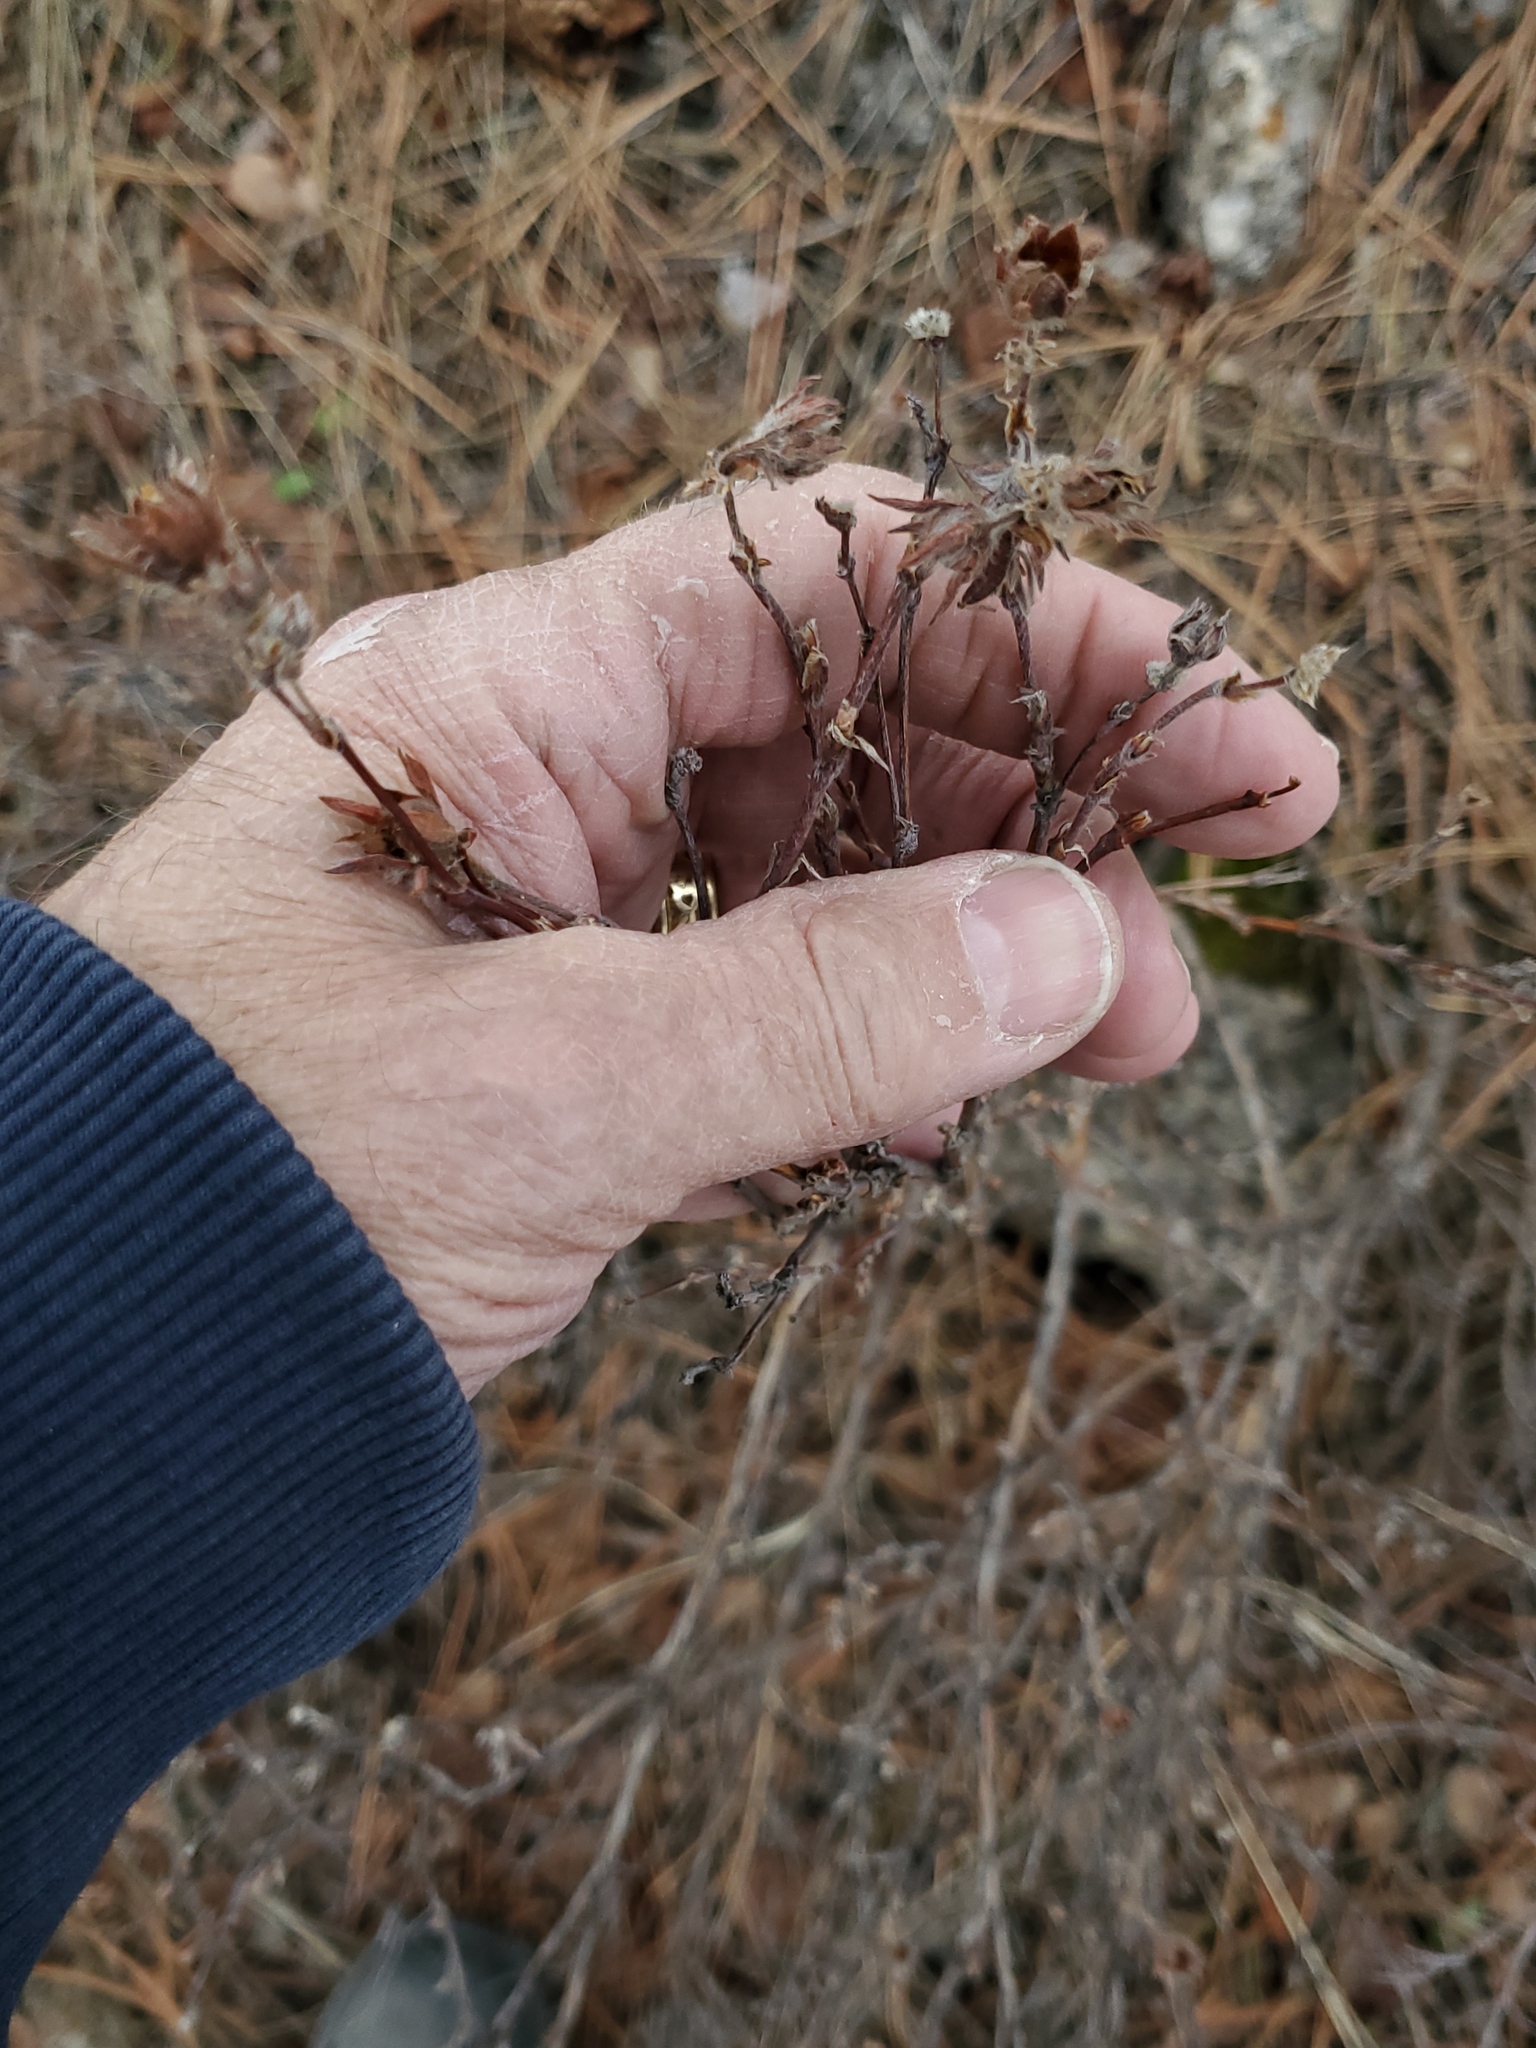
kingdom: Plantae
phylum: Tracheophyta
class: Magnoliopsida
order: Rosales
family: Rosaceae
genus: Dasiphora
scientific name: Dasiphora fruticosa
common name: Shrubby cinquefoil
